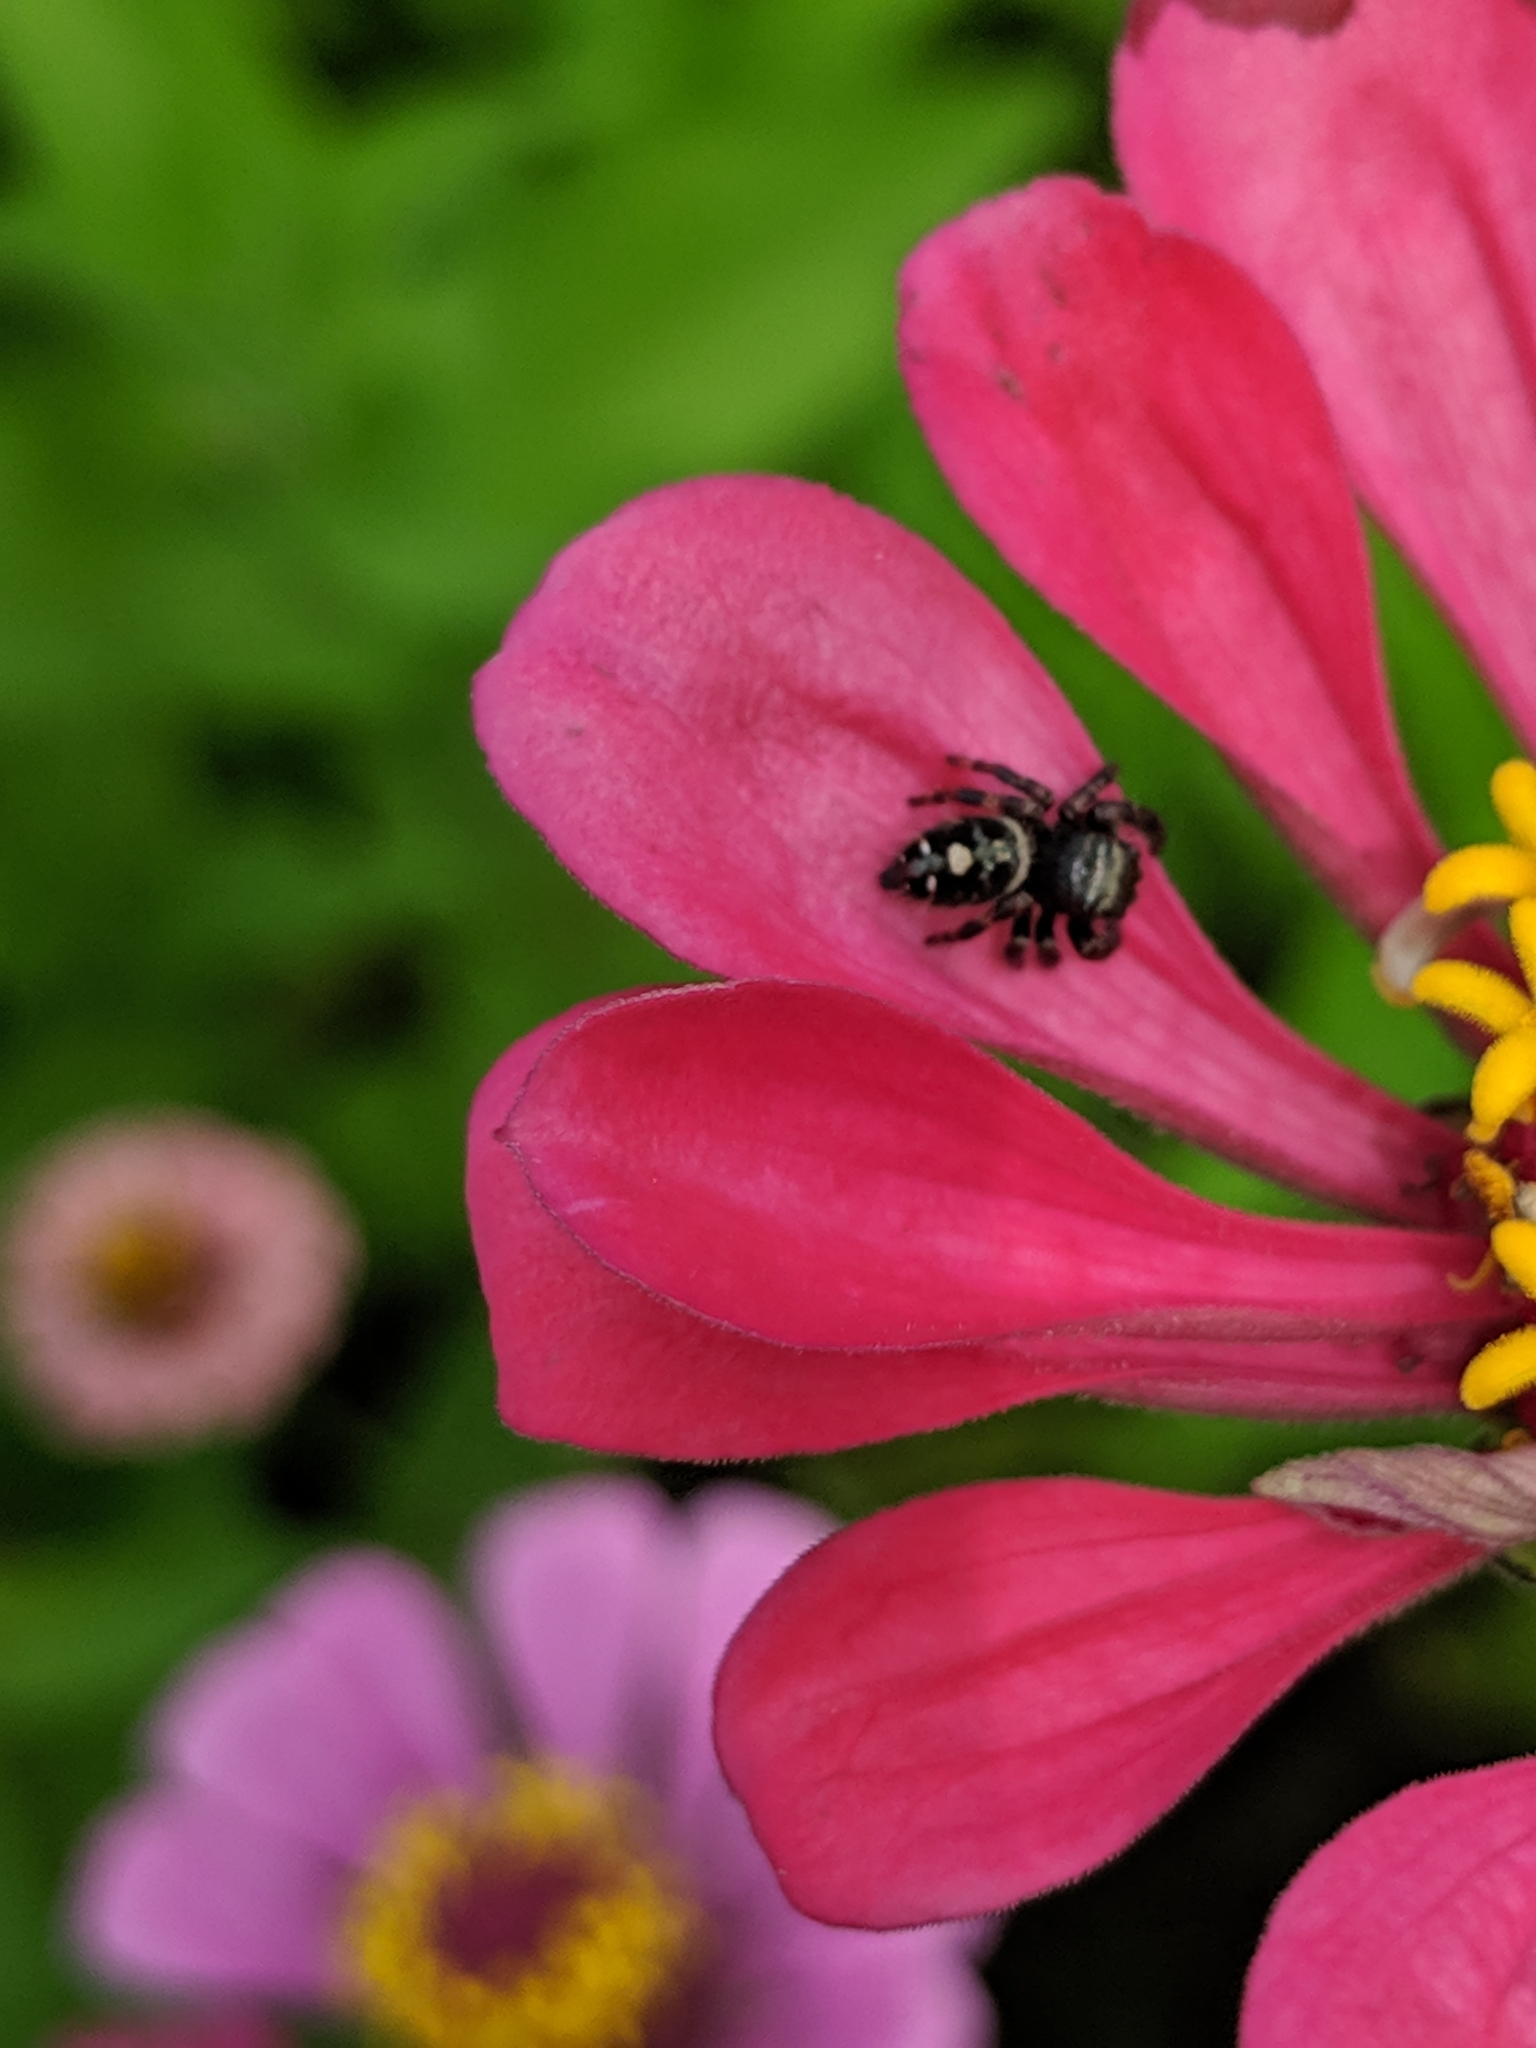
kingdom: Animalia
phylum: Arthropoda
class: Arachnida
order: Araneae
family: Salticidae
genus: Phidippus
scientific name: Phidippus audax
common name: Bold jumper
